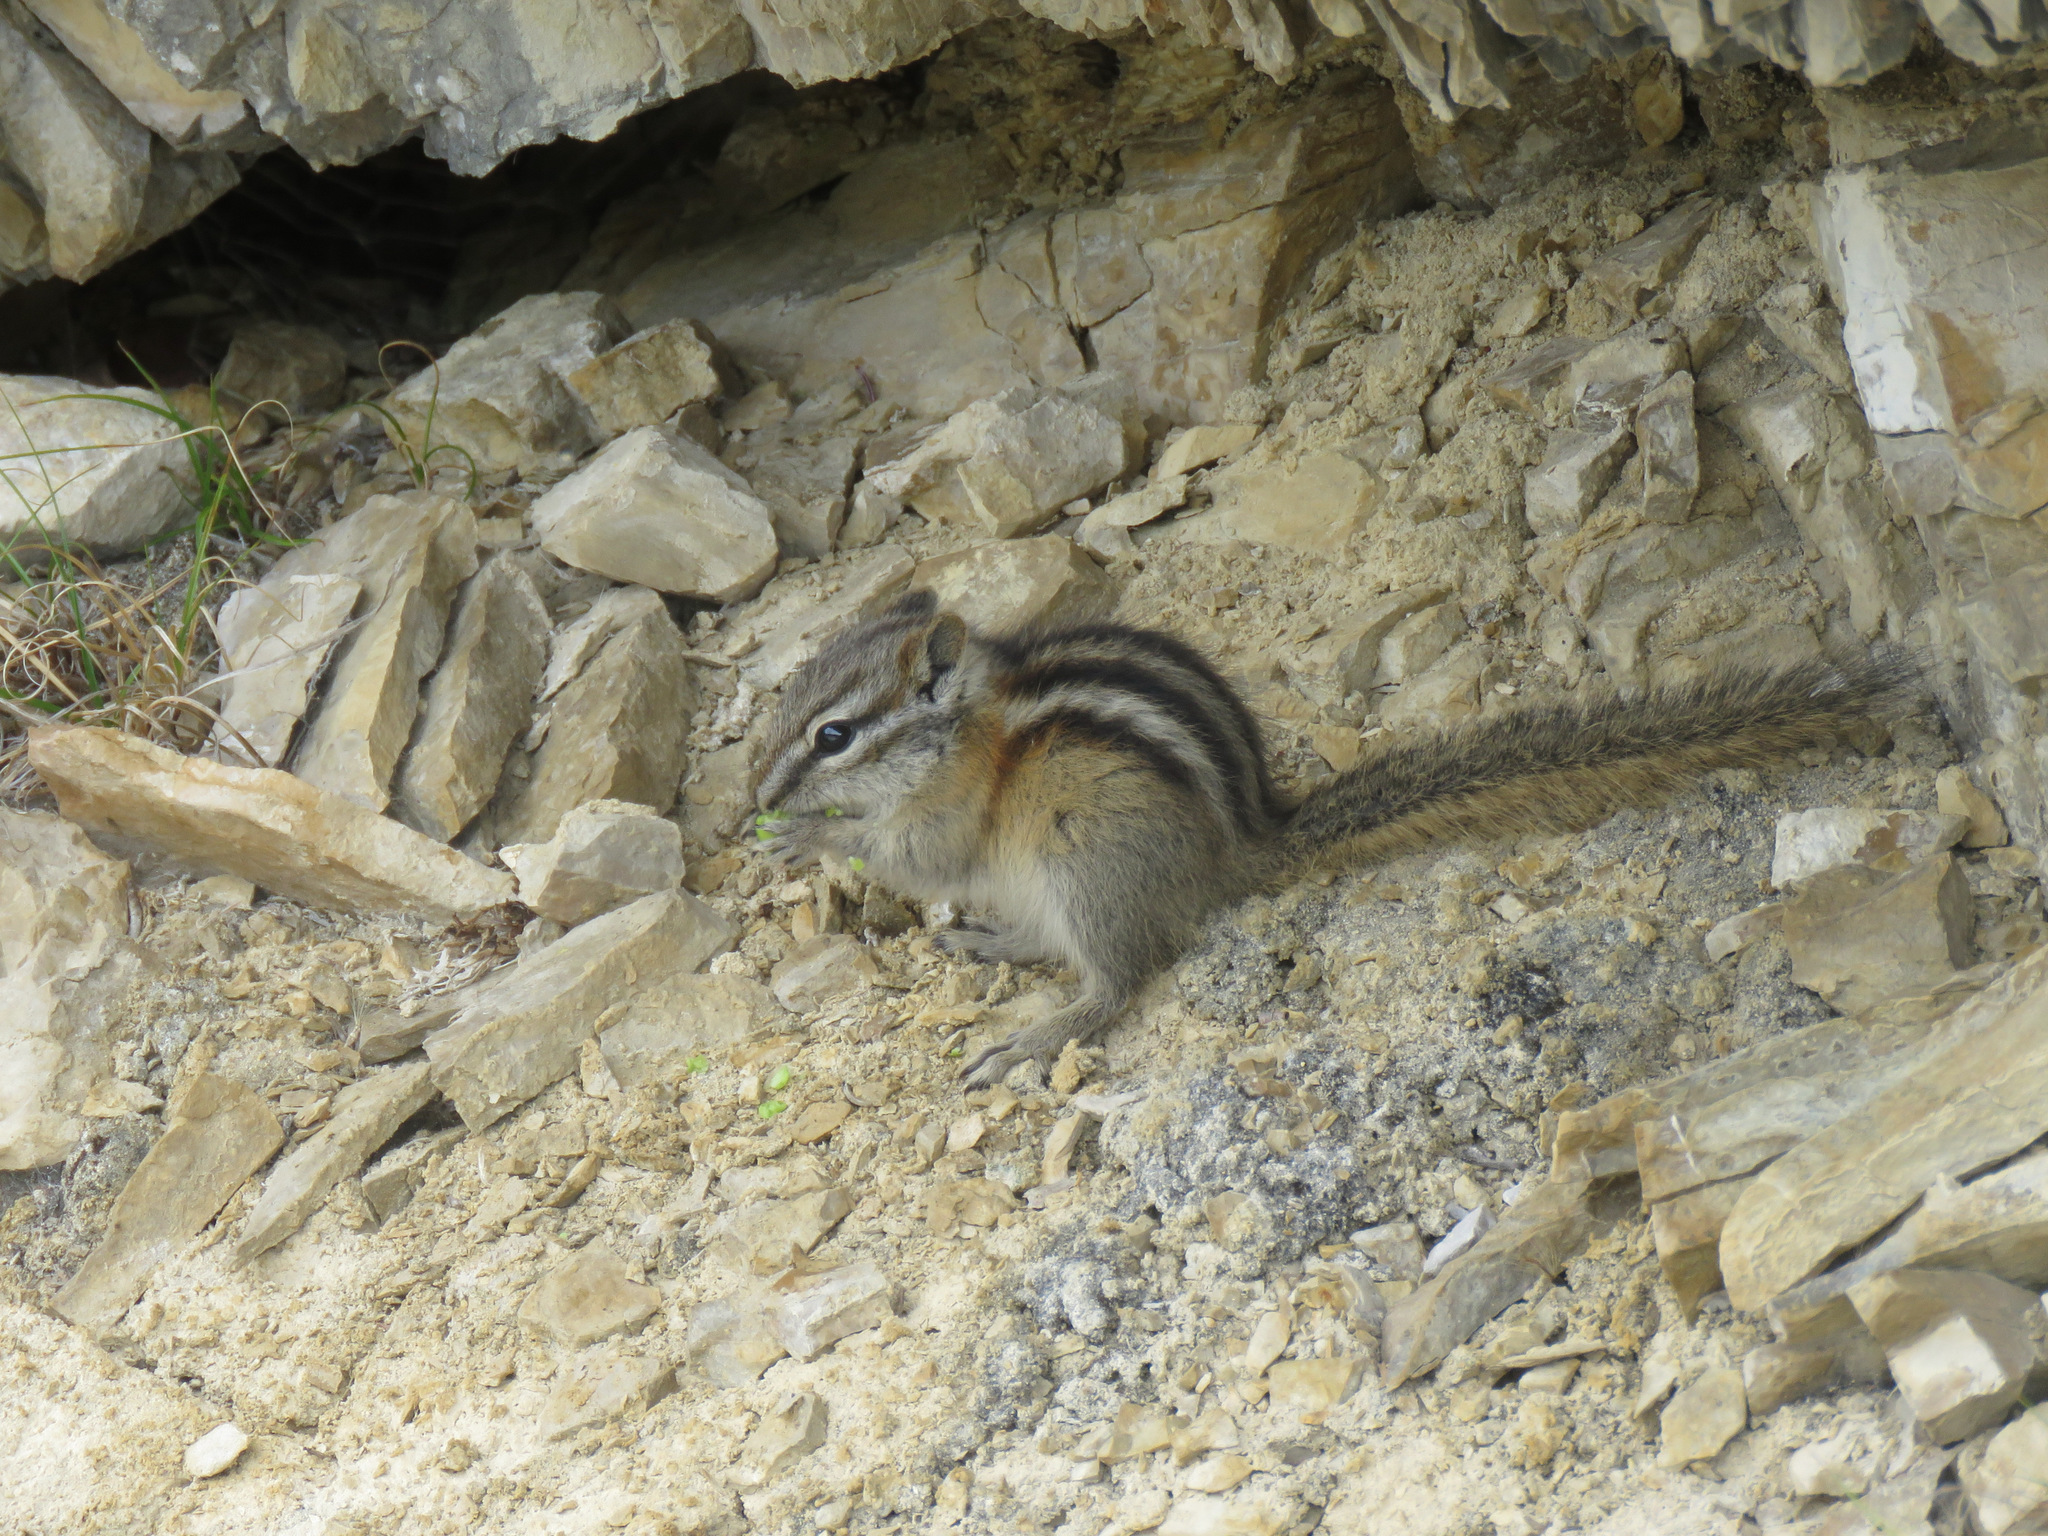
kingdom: Animalia
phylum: Chordata
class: Mammalia
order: Rodentia
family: Sciuridae
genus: Tamias
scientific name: Tamias minimus
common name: Least chipmunk
